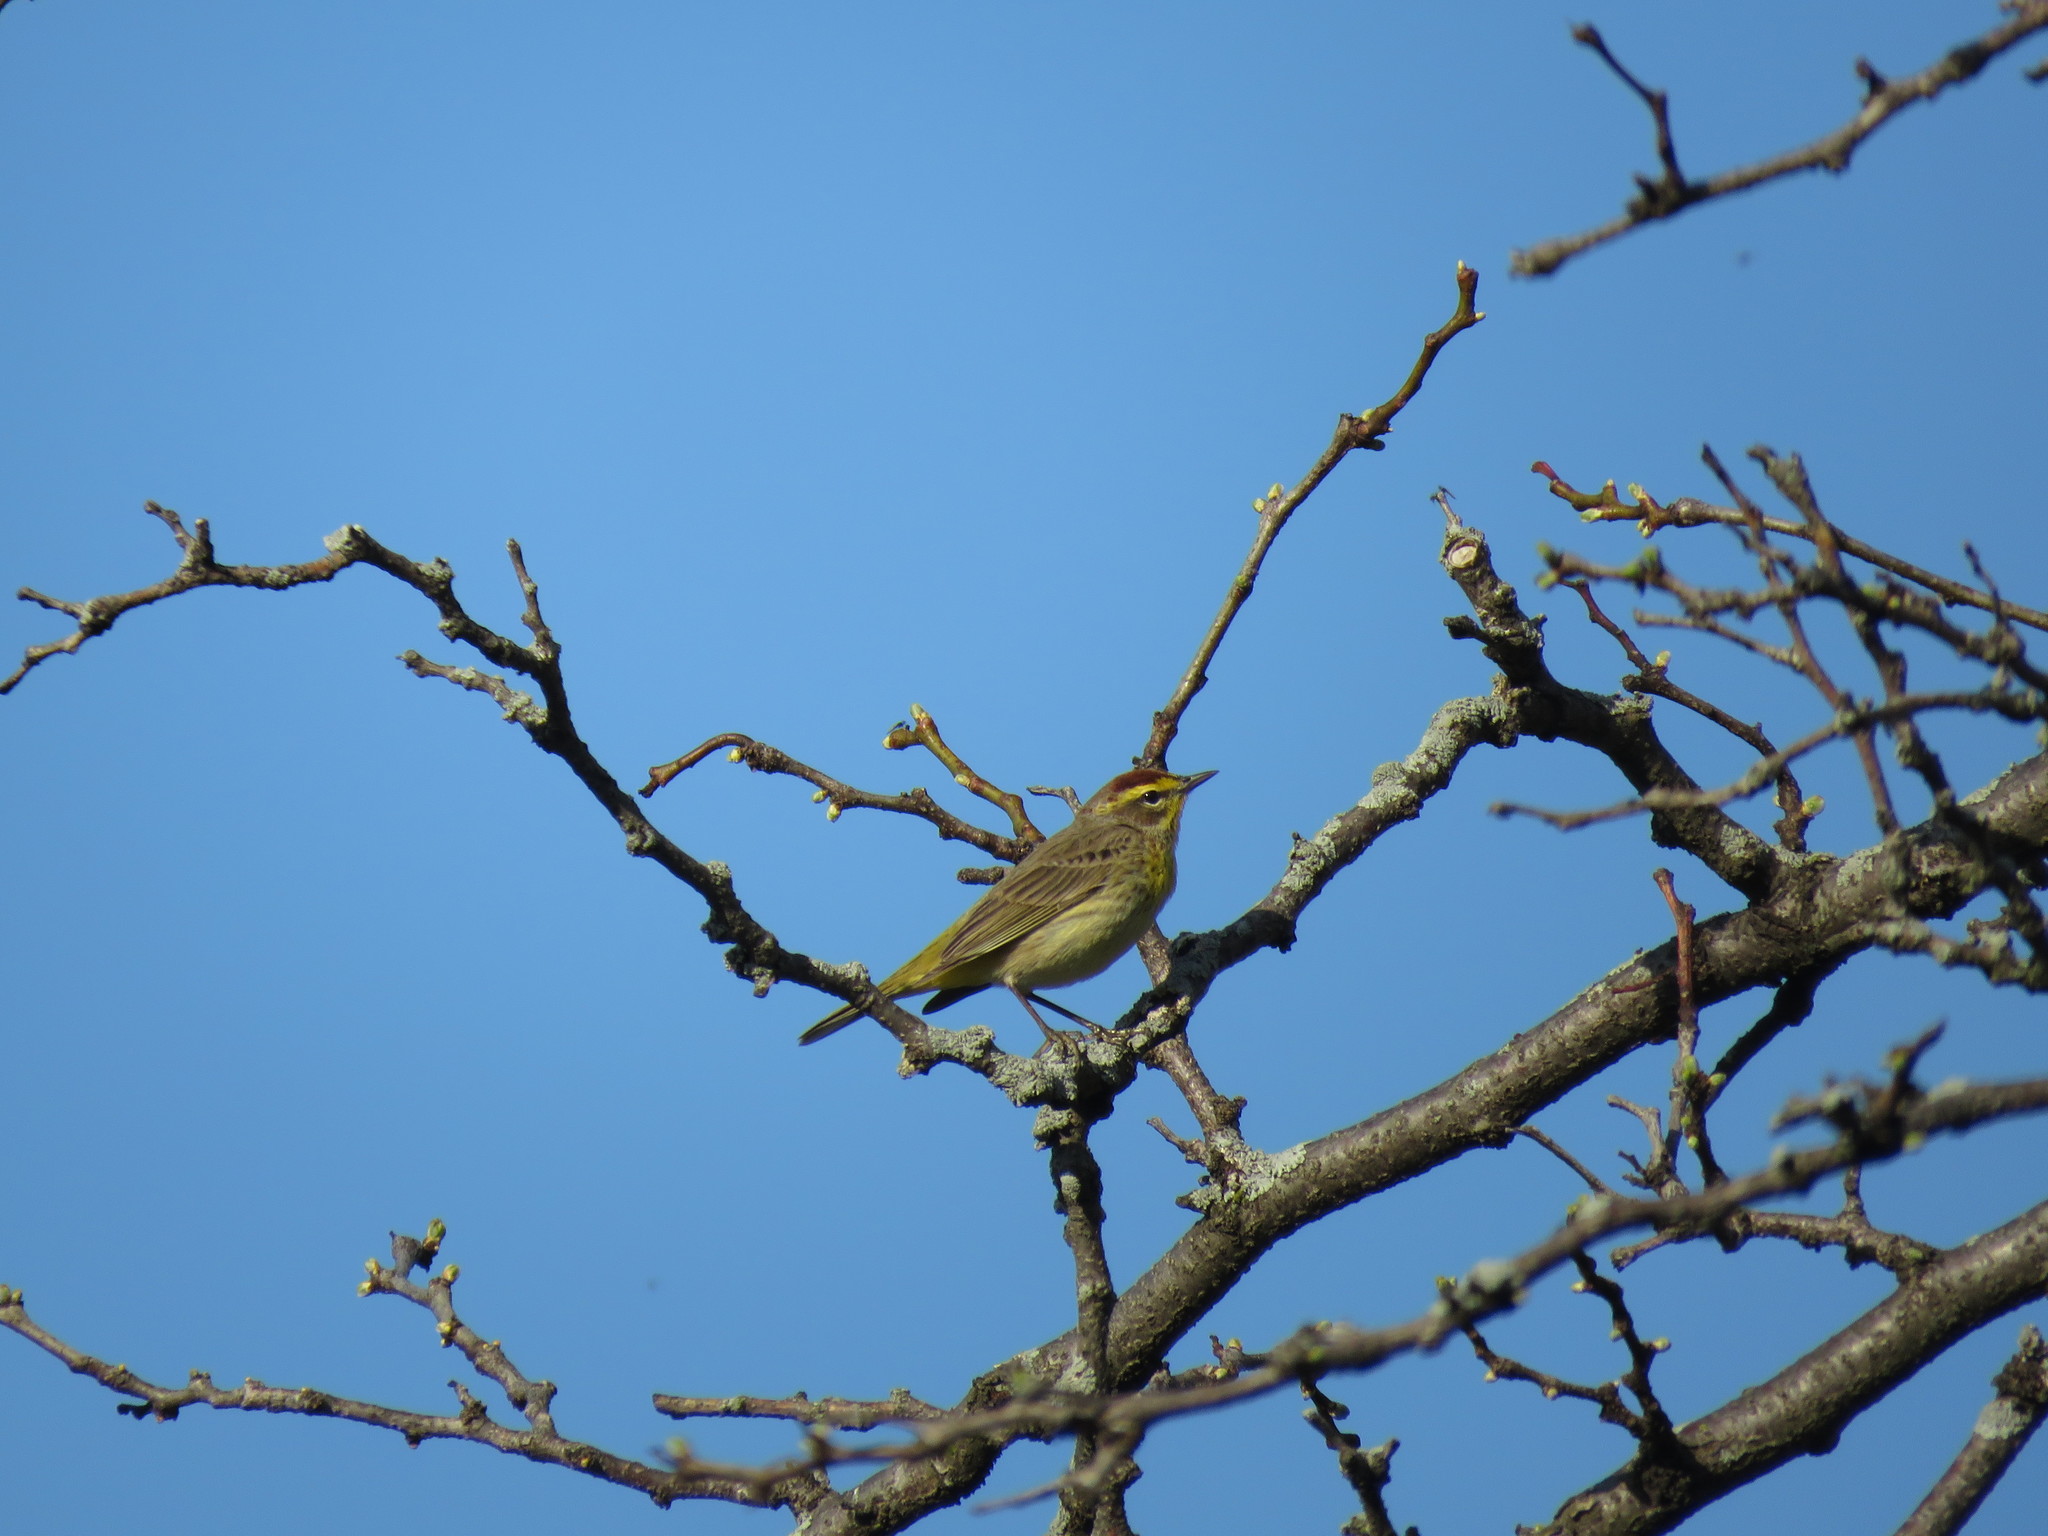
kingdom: Animalia
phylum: Chordata
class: Aves
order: Passeriformes
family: Parulidae
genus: Setophaga
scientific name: Setophaga palmarum
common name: Palm warbler
